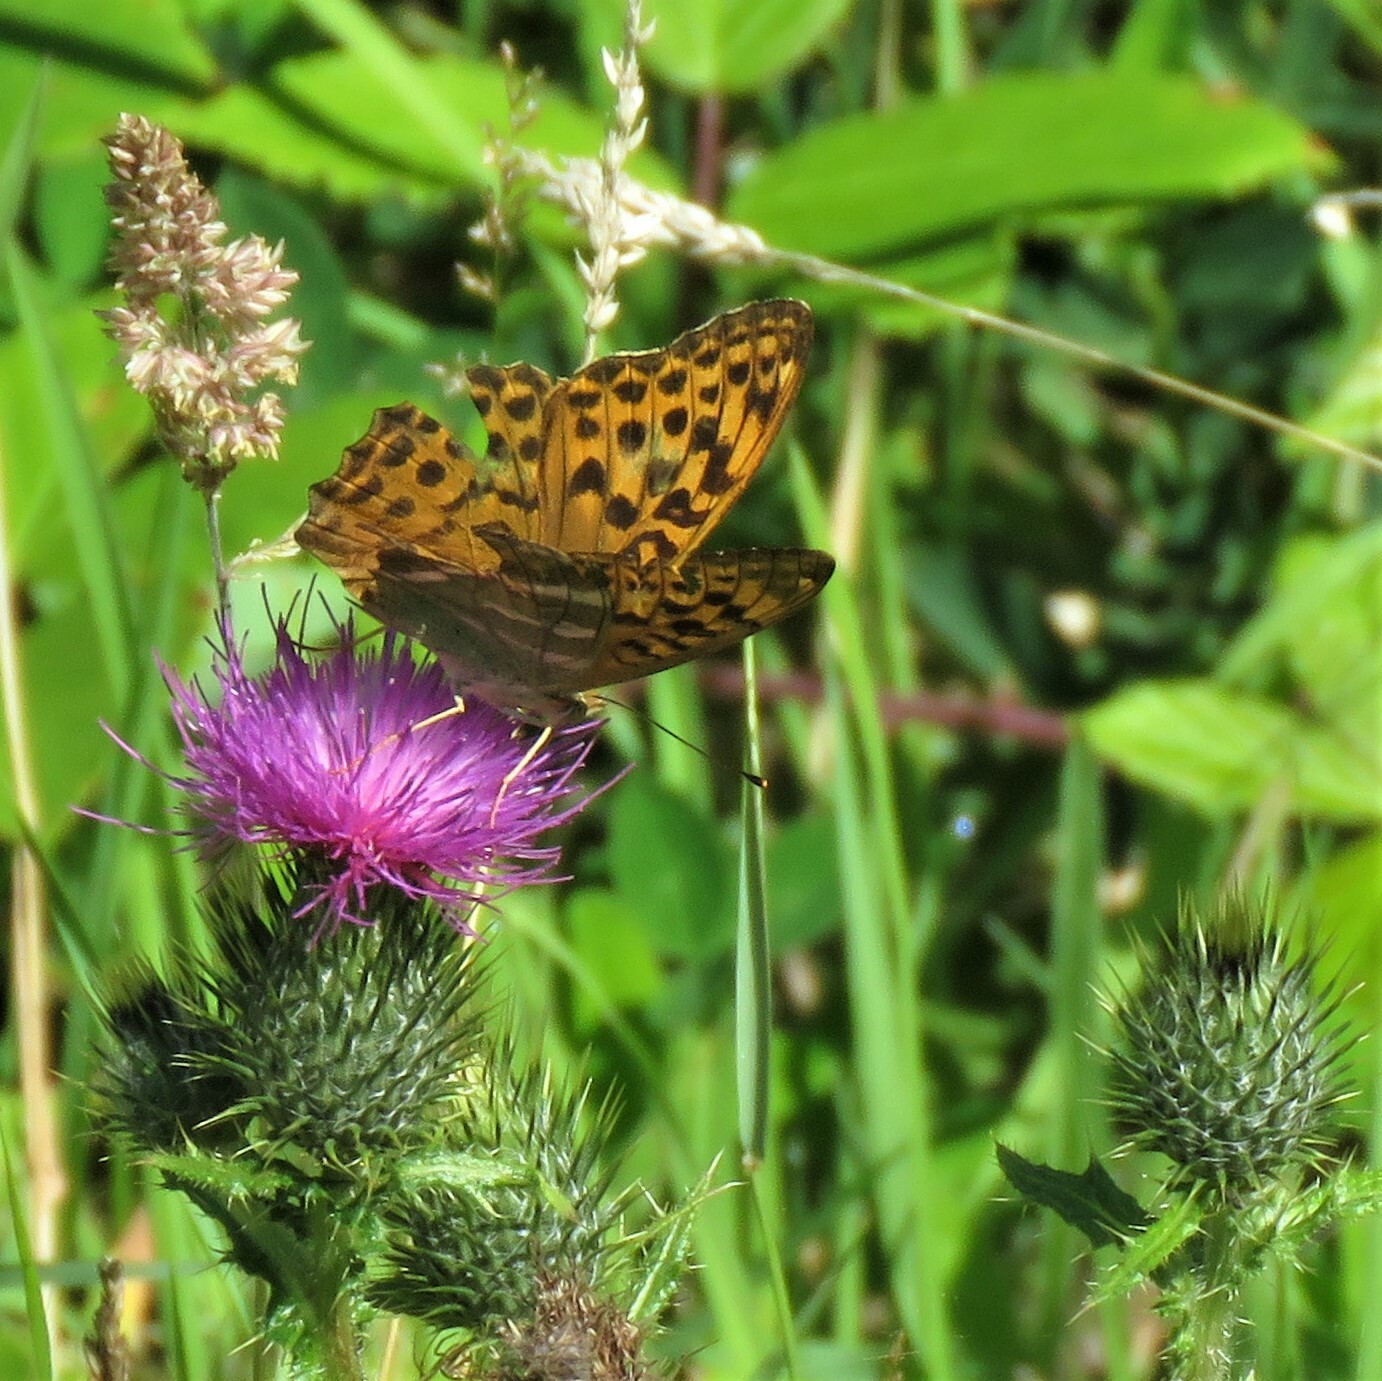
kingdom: Animalia
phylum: Arthropoda
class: Insecta
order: Lepidoptera
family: Nymphalidae
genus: Argynnis
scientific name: Argynnis paphia
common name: Silver-washed fritillary
